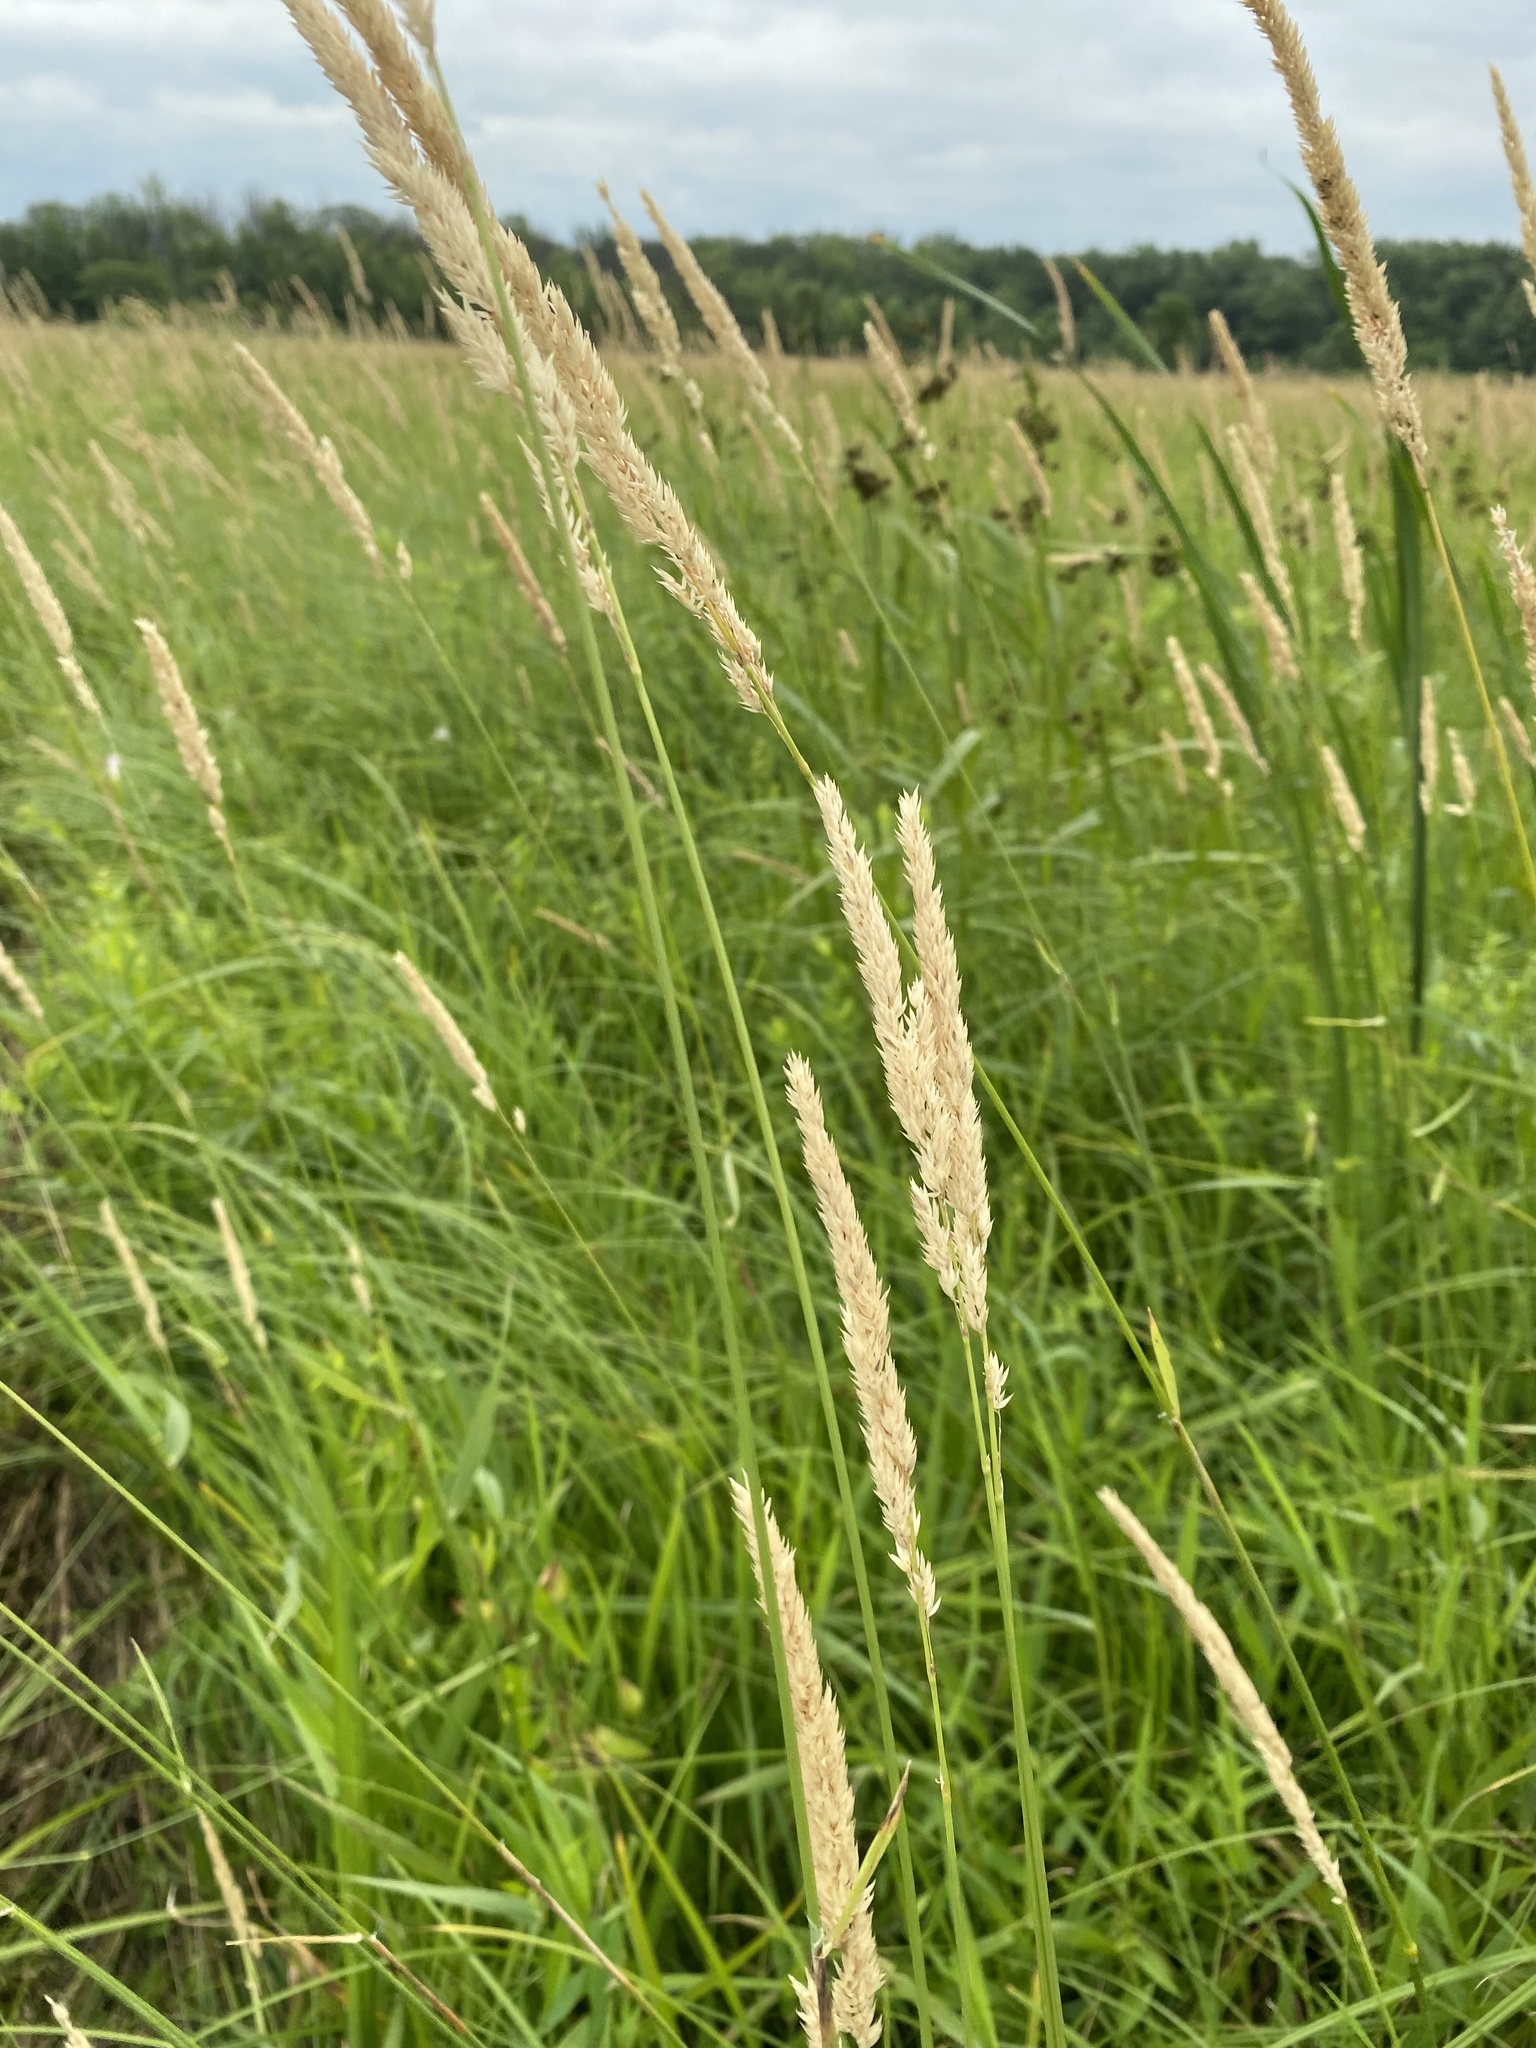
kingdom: Plantae
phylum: Tracheophyta
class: Liliopsida
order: Poales
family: Poaceae
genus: Phalaris
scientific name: Phalaris arundinacea
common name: Reed canary-grass
